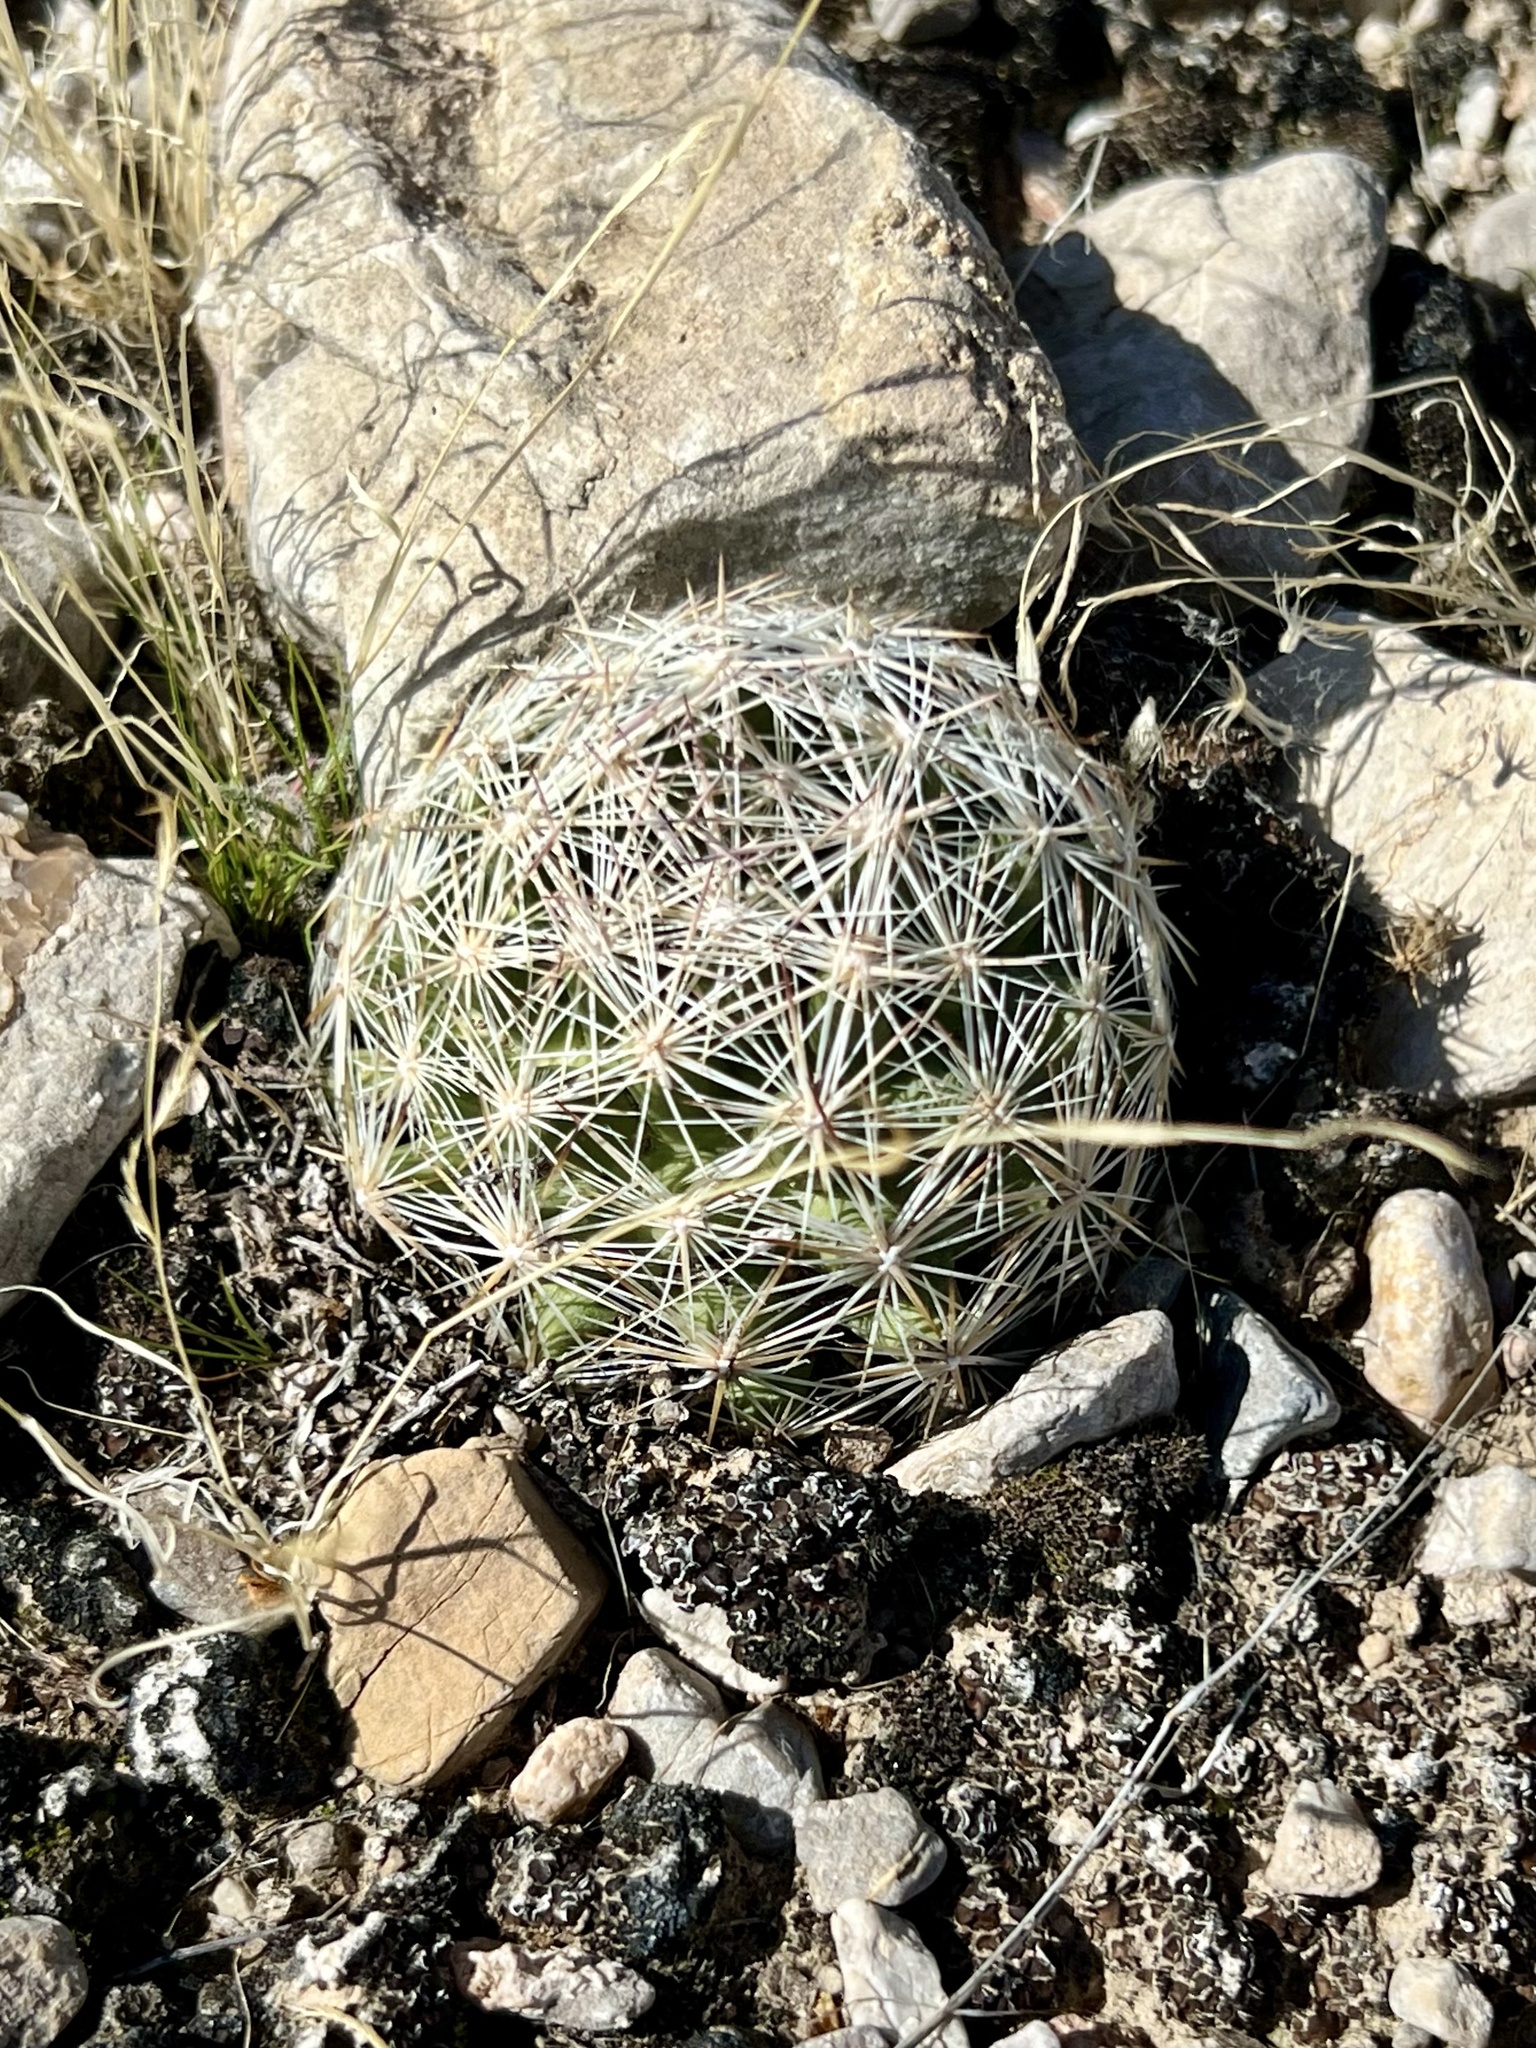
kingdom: Plantae
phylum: Tracheophyta
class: Magnoliopsida
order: Caryophyllales
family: Cactaceae
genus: Pelecyphora
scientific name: Pelecyphora dasyacantha
